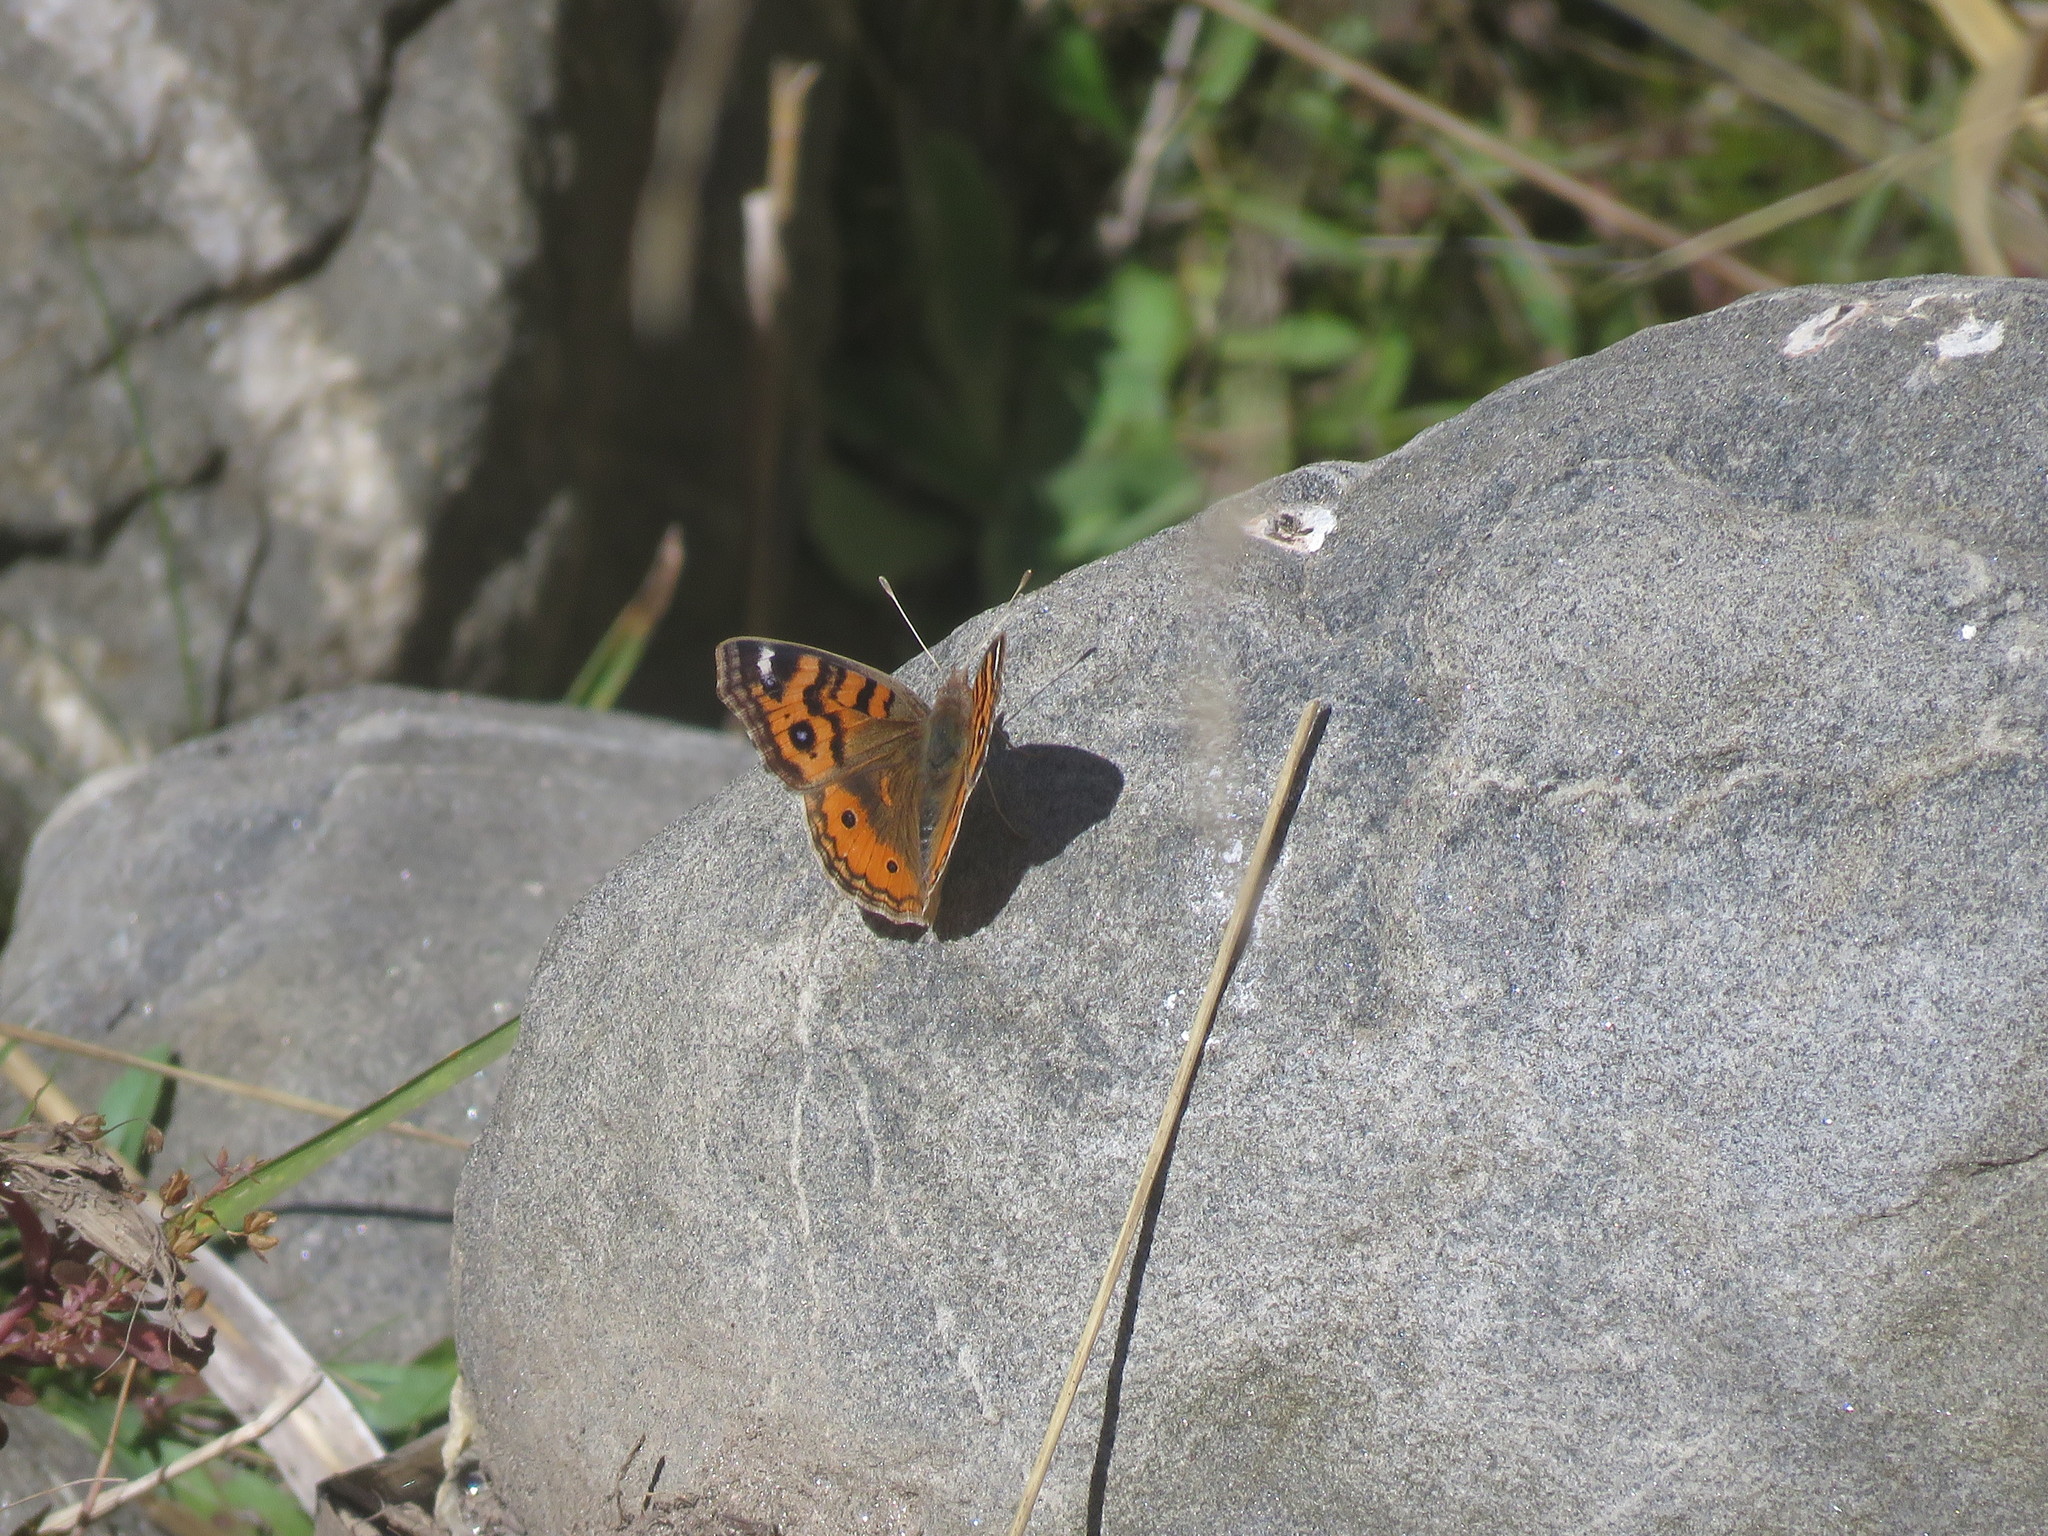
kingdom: Animalia
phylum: Arthropoda
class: Insecta
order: Lepidoptera
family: Nymphalidae
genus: Junonia
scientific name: Junonia vestina
